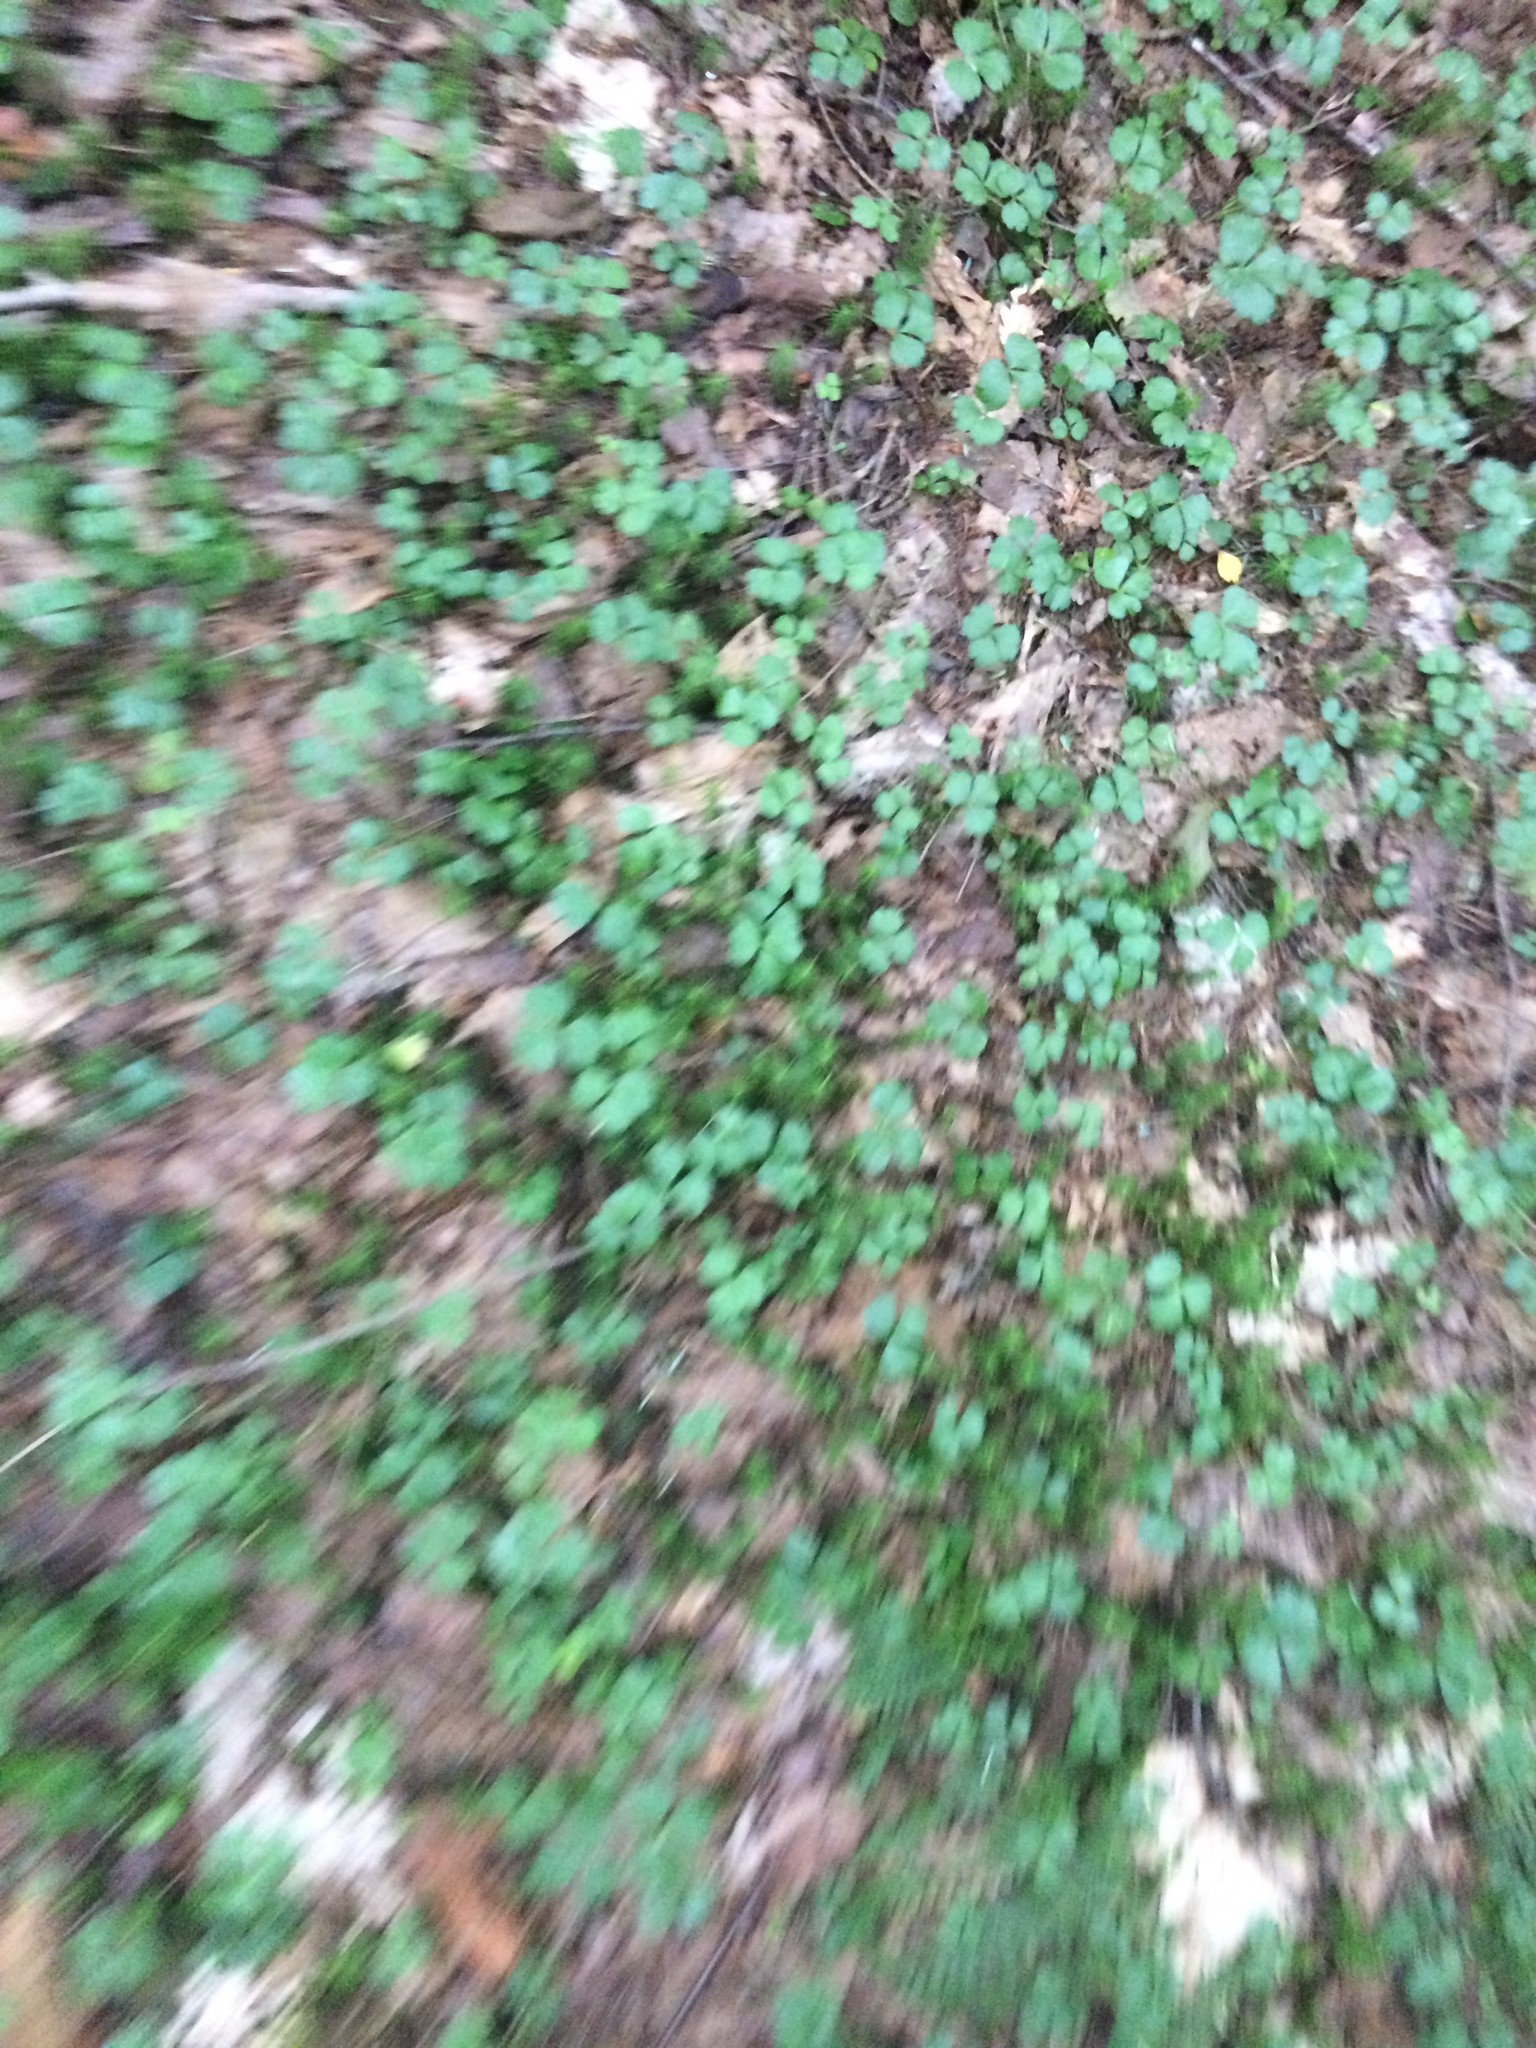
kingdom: Plantae
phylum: Tracheophyta
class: Magnoliopsida
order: Ranunculales
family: Ranunculaceae
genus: Coptis
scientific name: Coptis trifolia
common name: Canker-root
